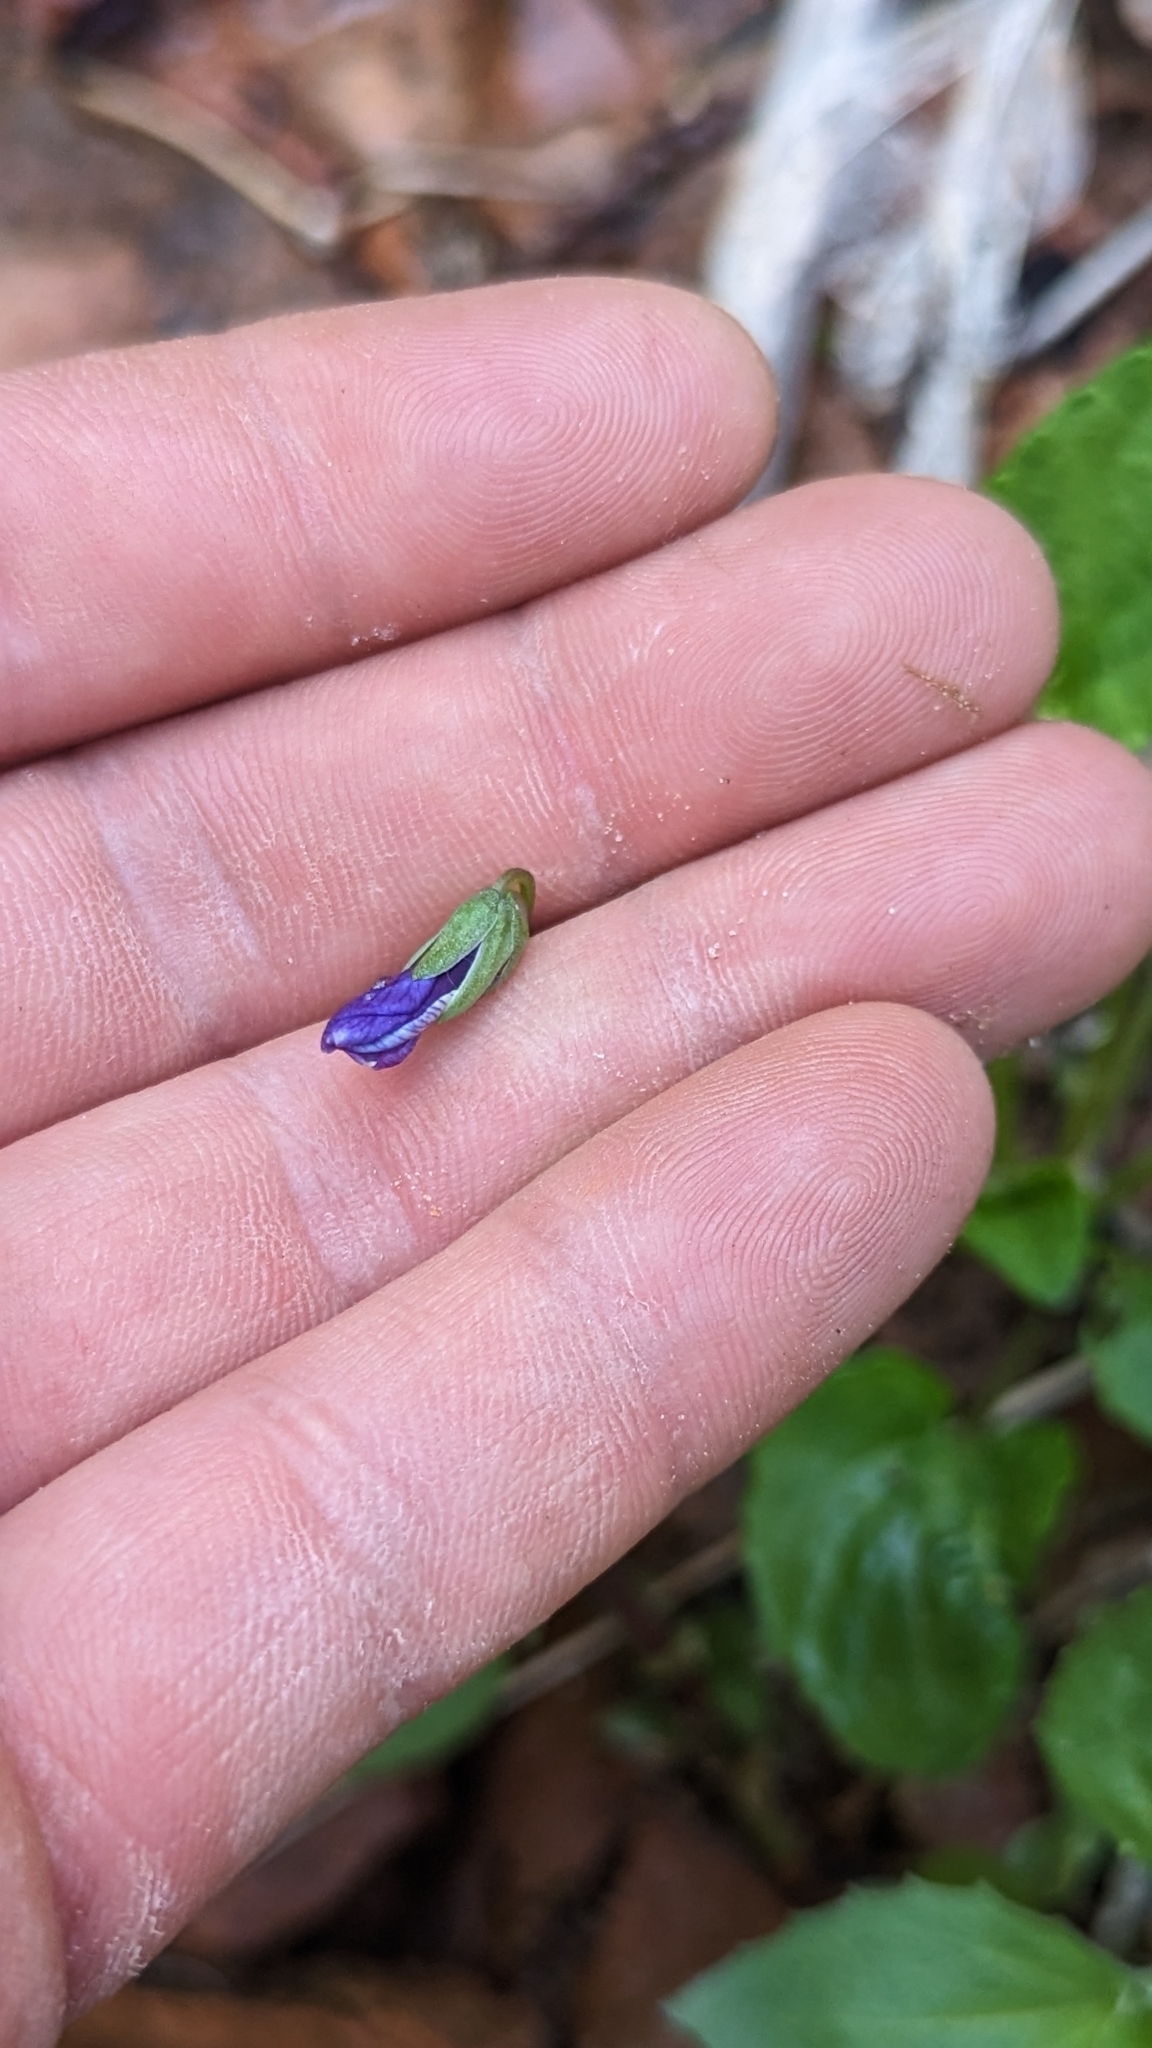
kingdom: Plantae
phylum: Tracheophyta
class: Magnoliopsida
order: Malpighiales
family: Violaceae
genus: Viola
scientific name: Viola clauseniana
